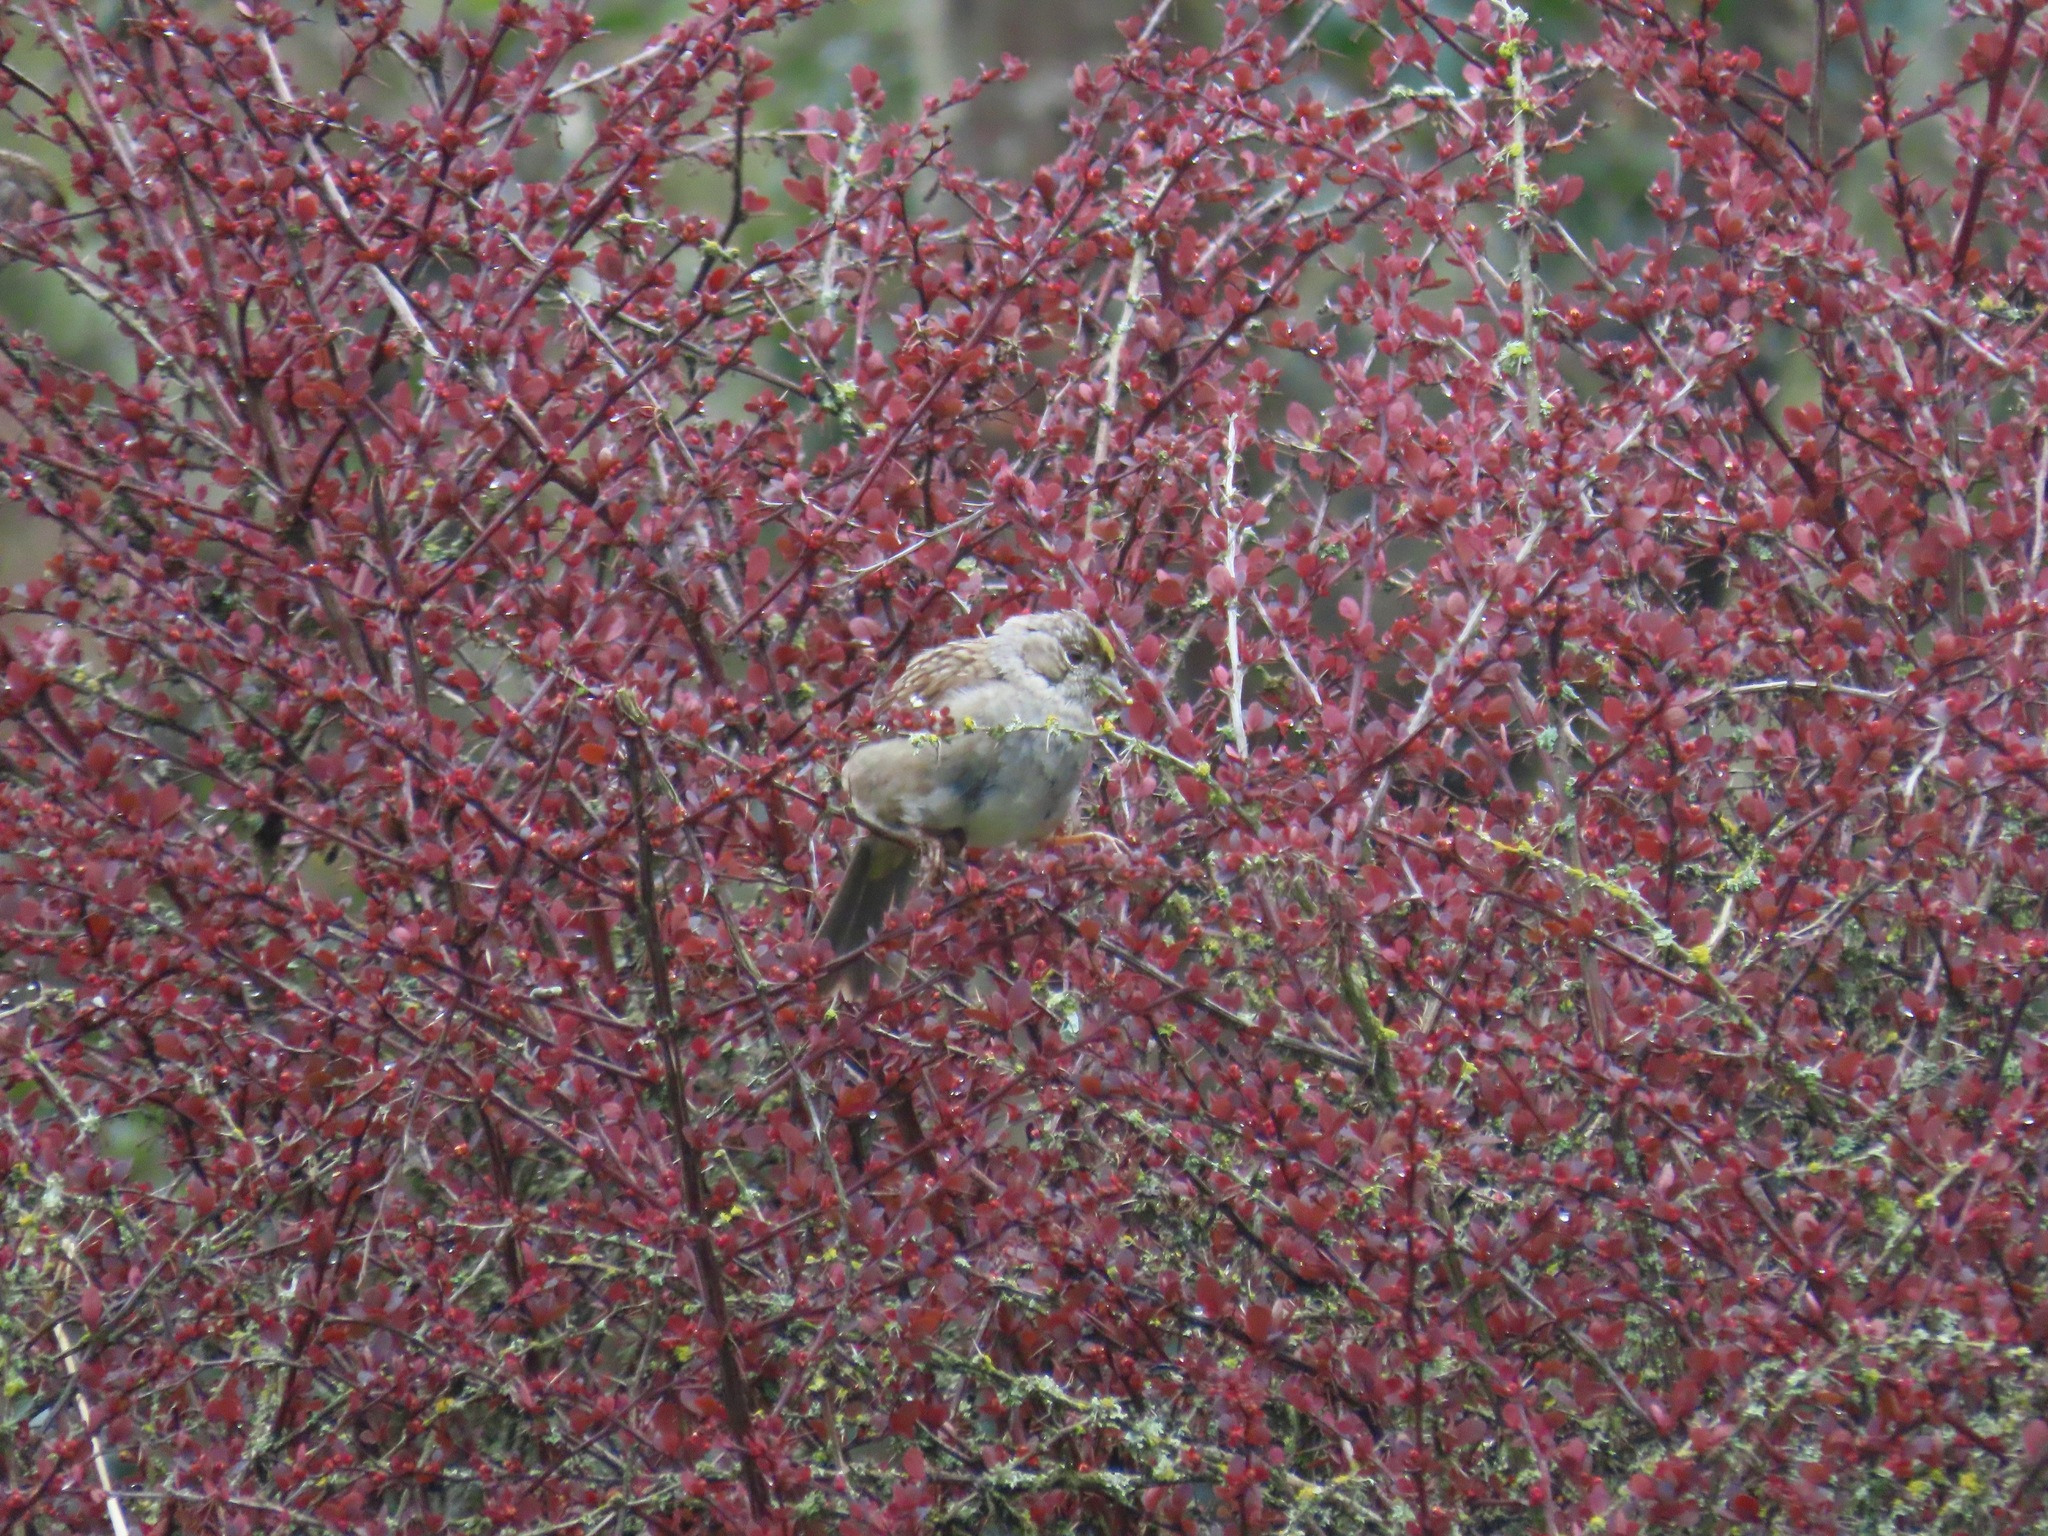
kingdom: Animalia
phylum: Chordata
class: Aves
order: Passeriformes
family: Passerellidae
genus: Zonotrichia
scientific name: Zonotrichia atricapilla
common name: Golden-crowned sparrow
